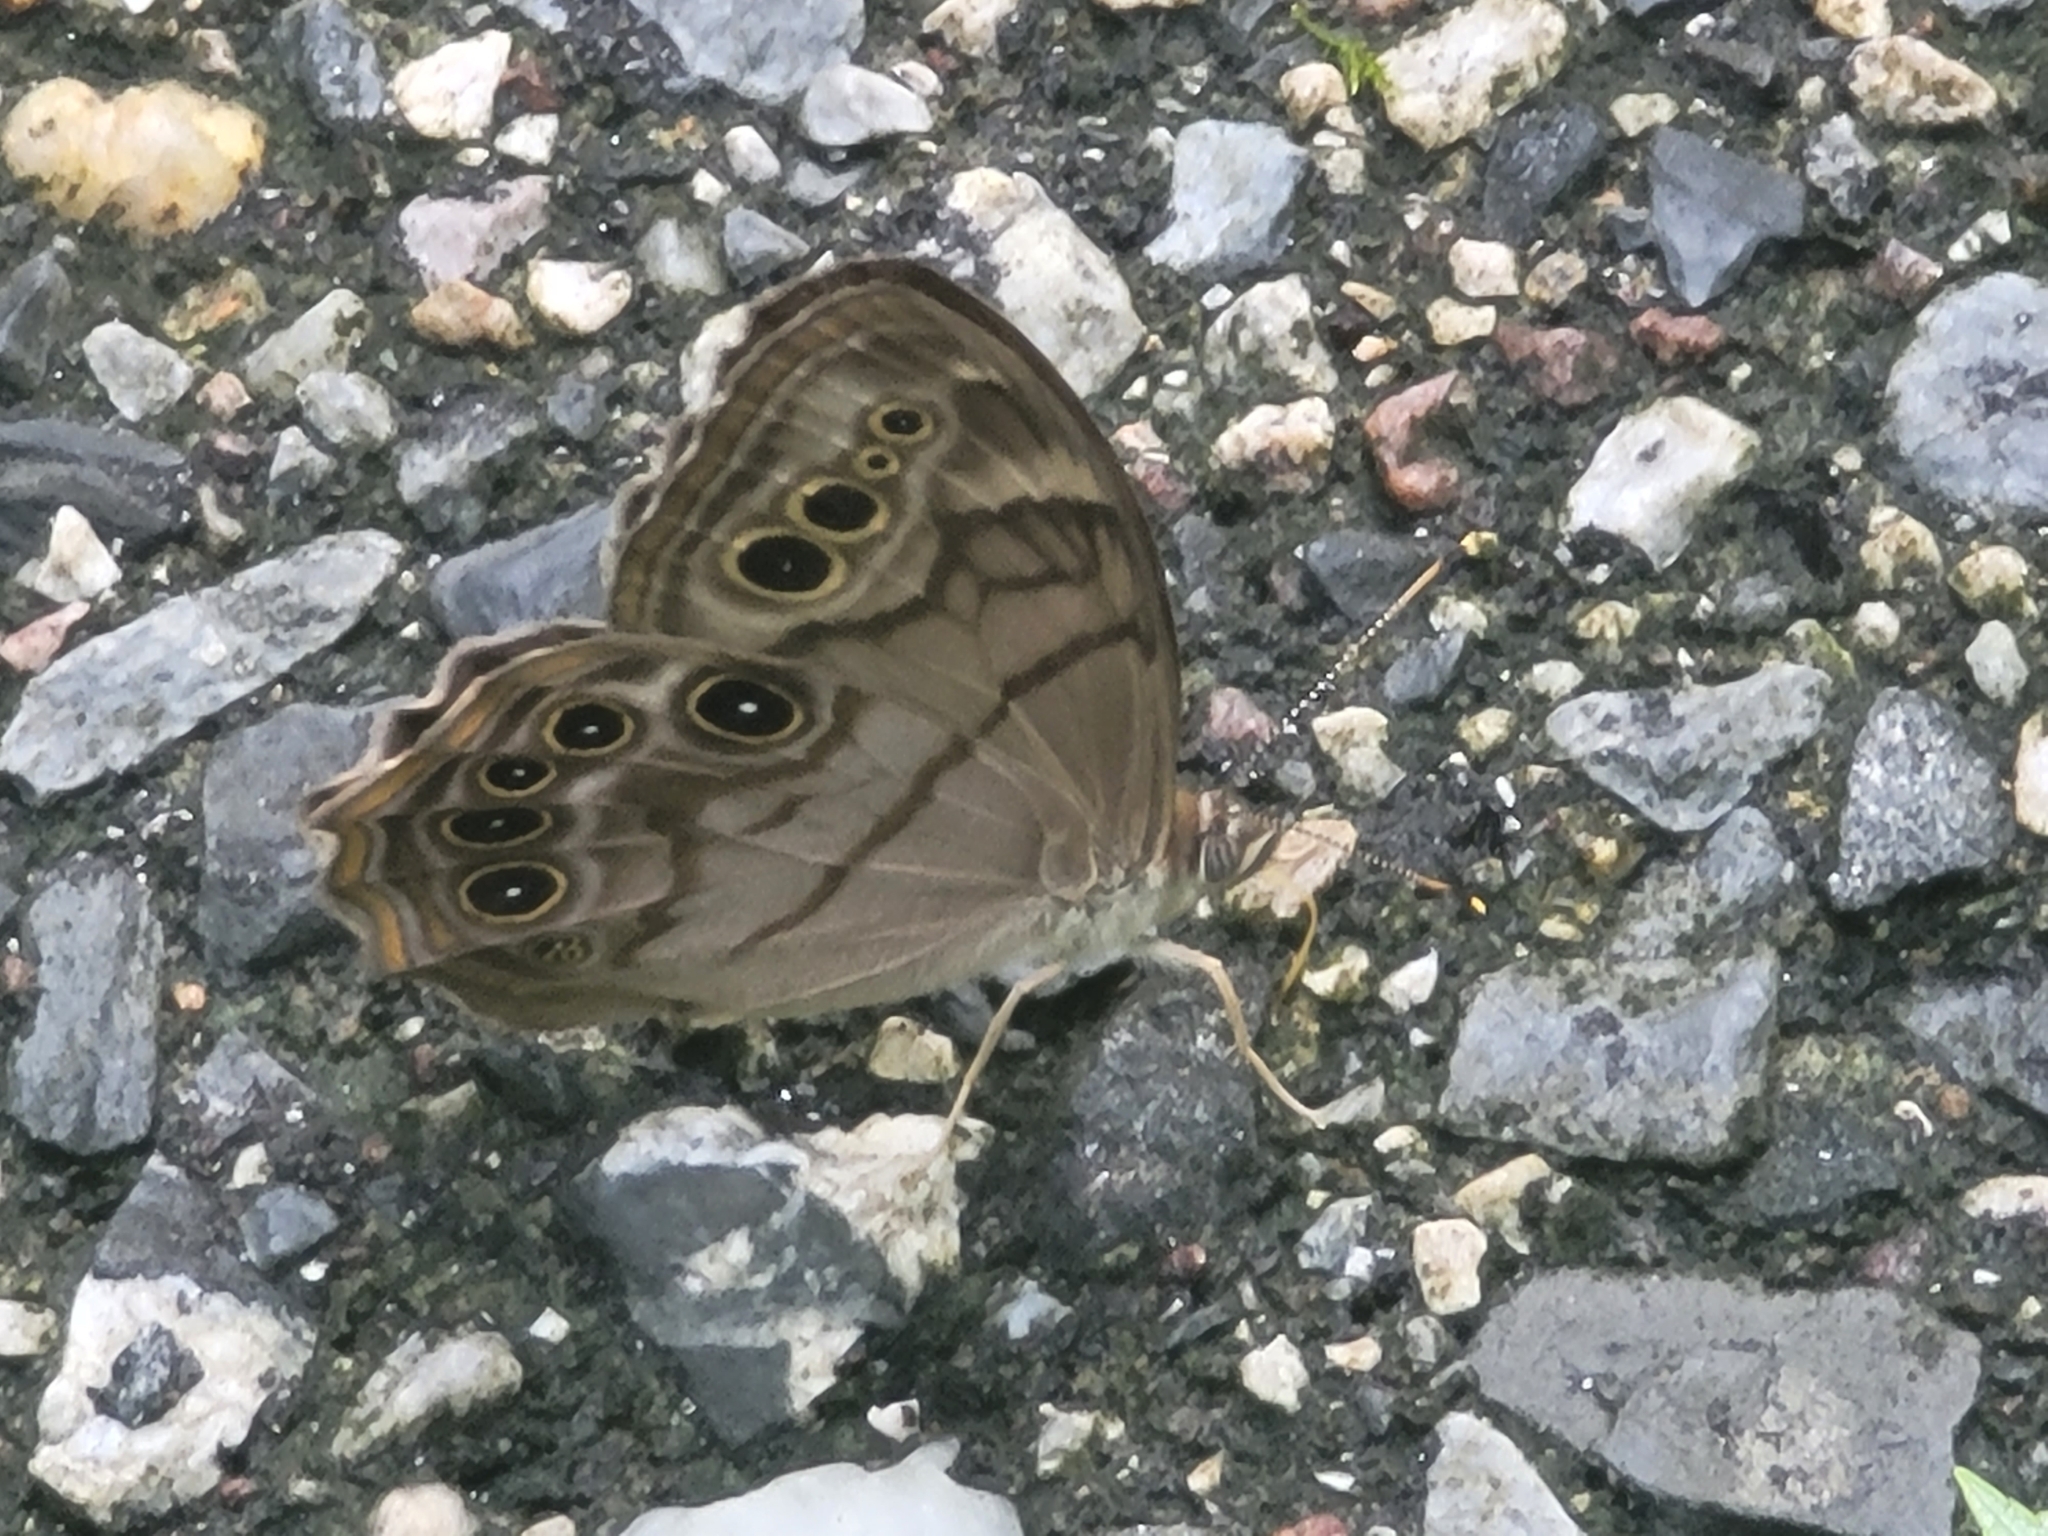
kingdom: Animalia
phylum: Arthropoda
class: Insecta
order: Lepidoptera
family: Nymphalidae
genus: Lethe
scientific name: Lethe anthedon
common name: Northern pearly-eye
